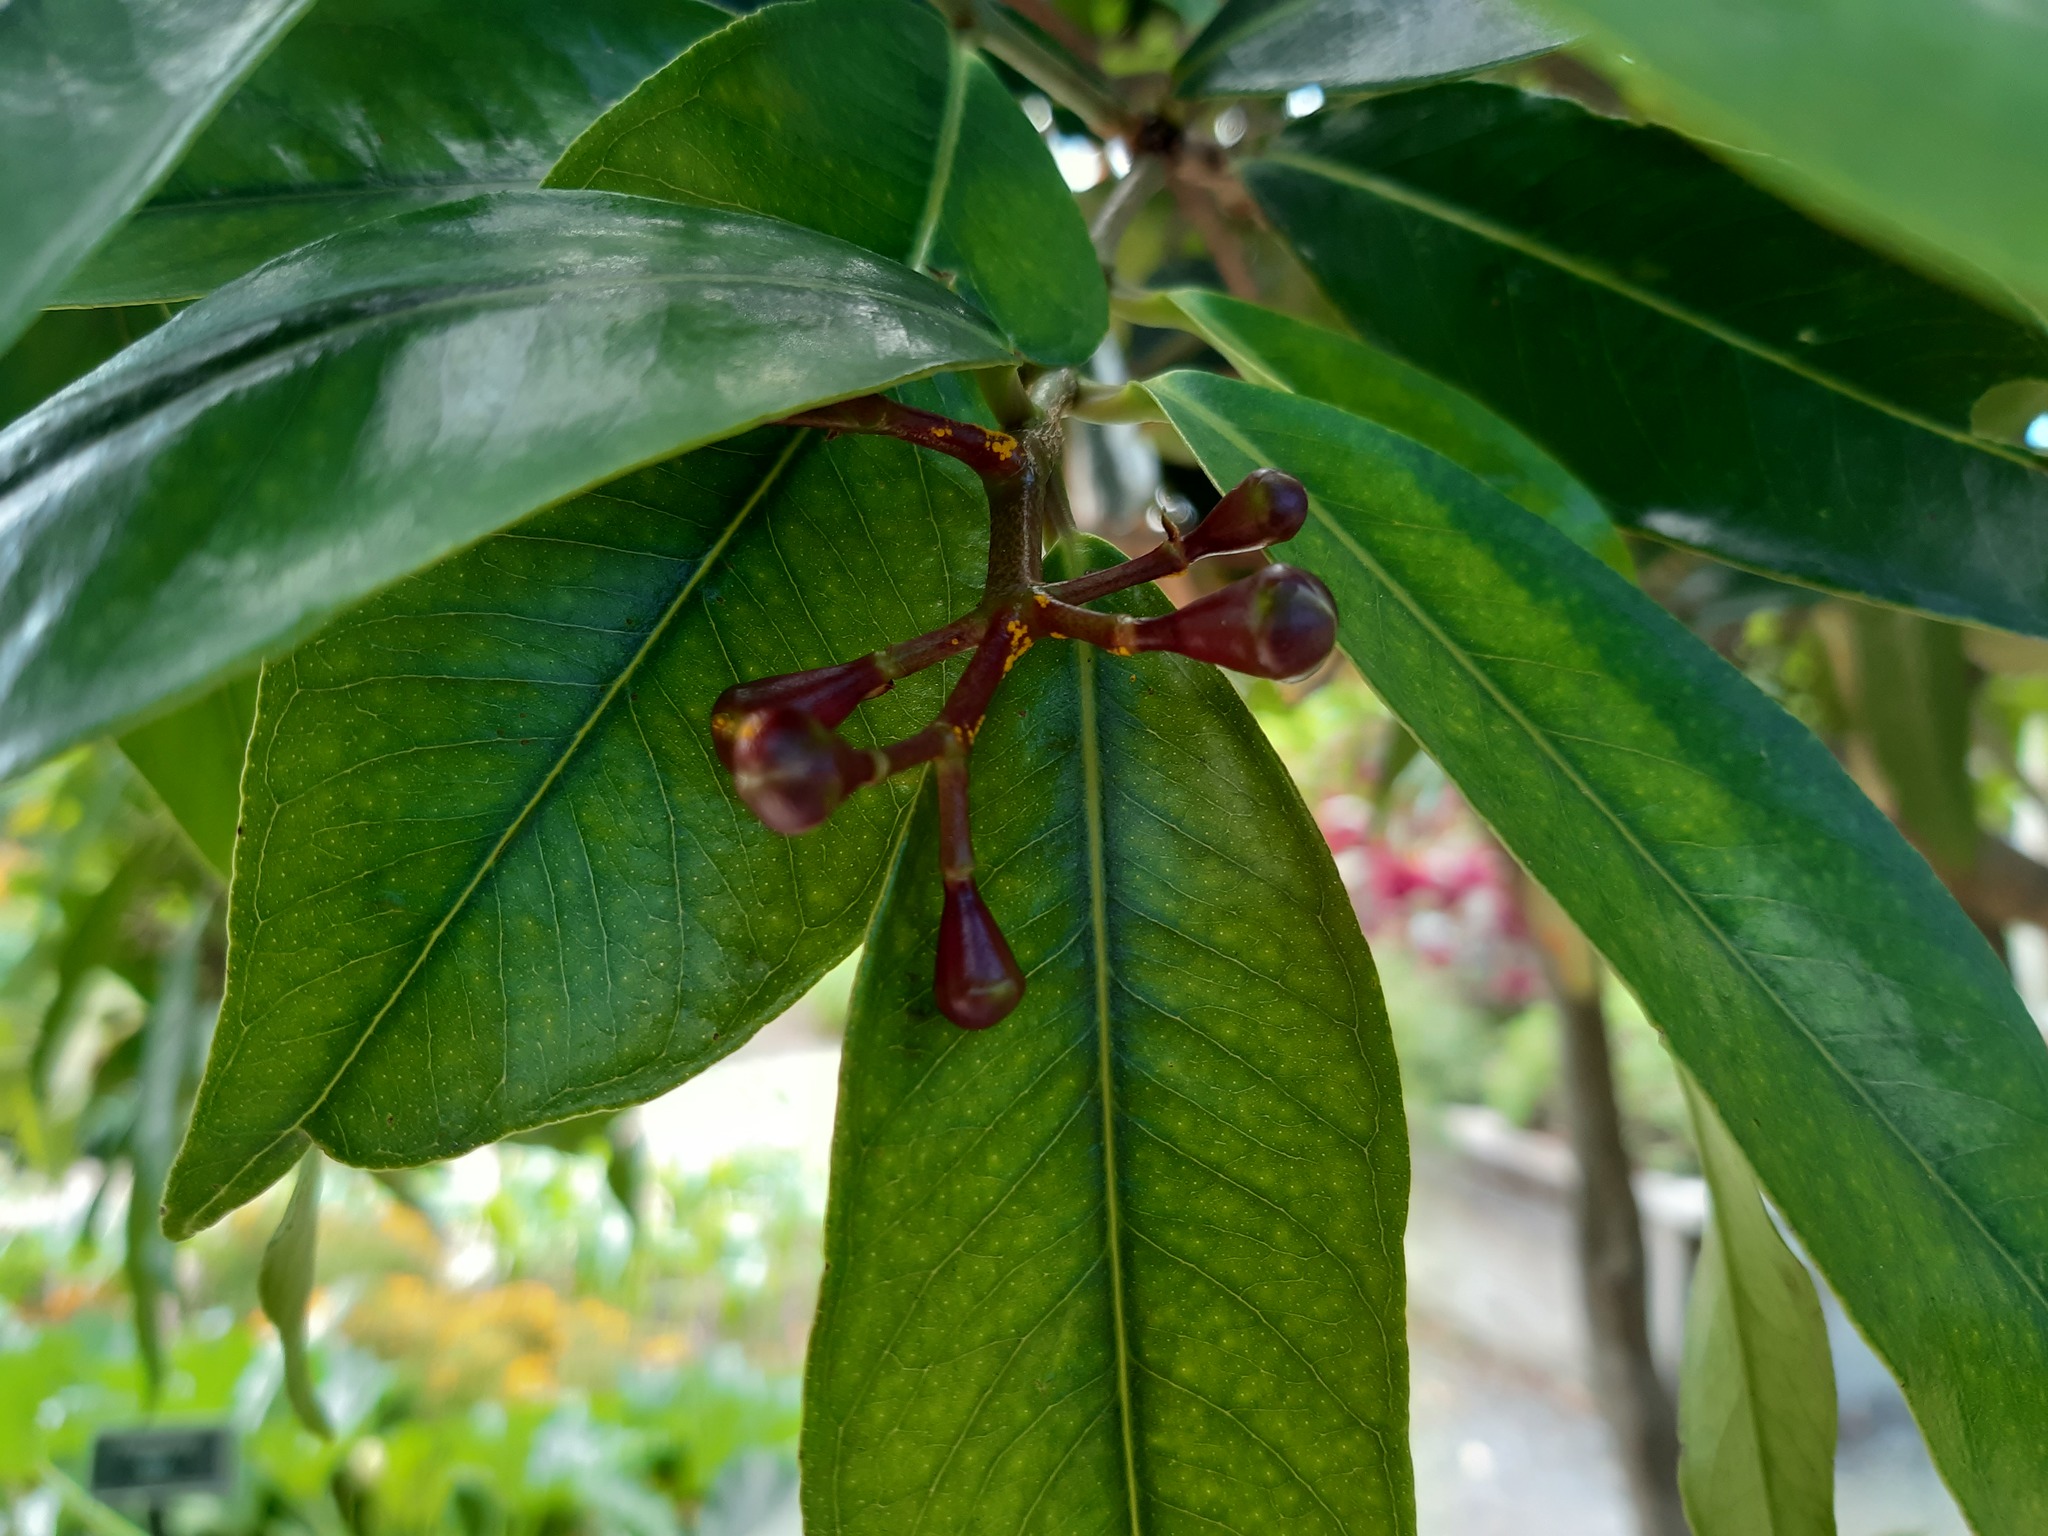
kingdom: Fungi
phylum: Basidiomycota
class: Pucciniomycetes
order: Pucciniales
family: Sphaerophragmiaceae
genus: Austropuccinia
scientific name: Austropuccinia psidii
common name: Myrtle rust
